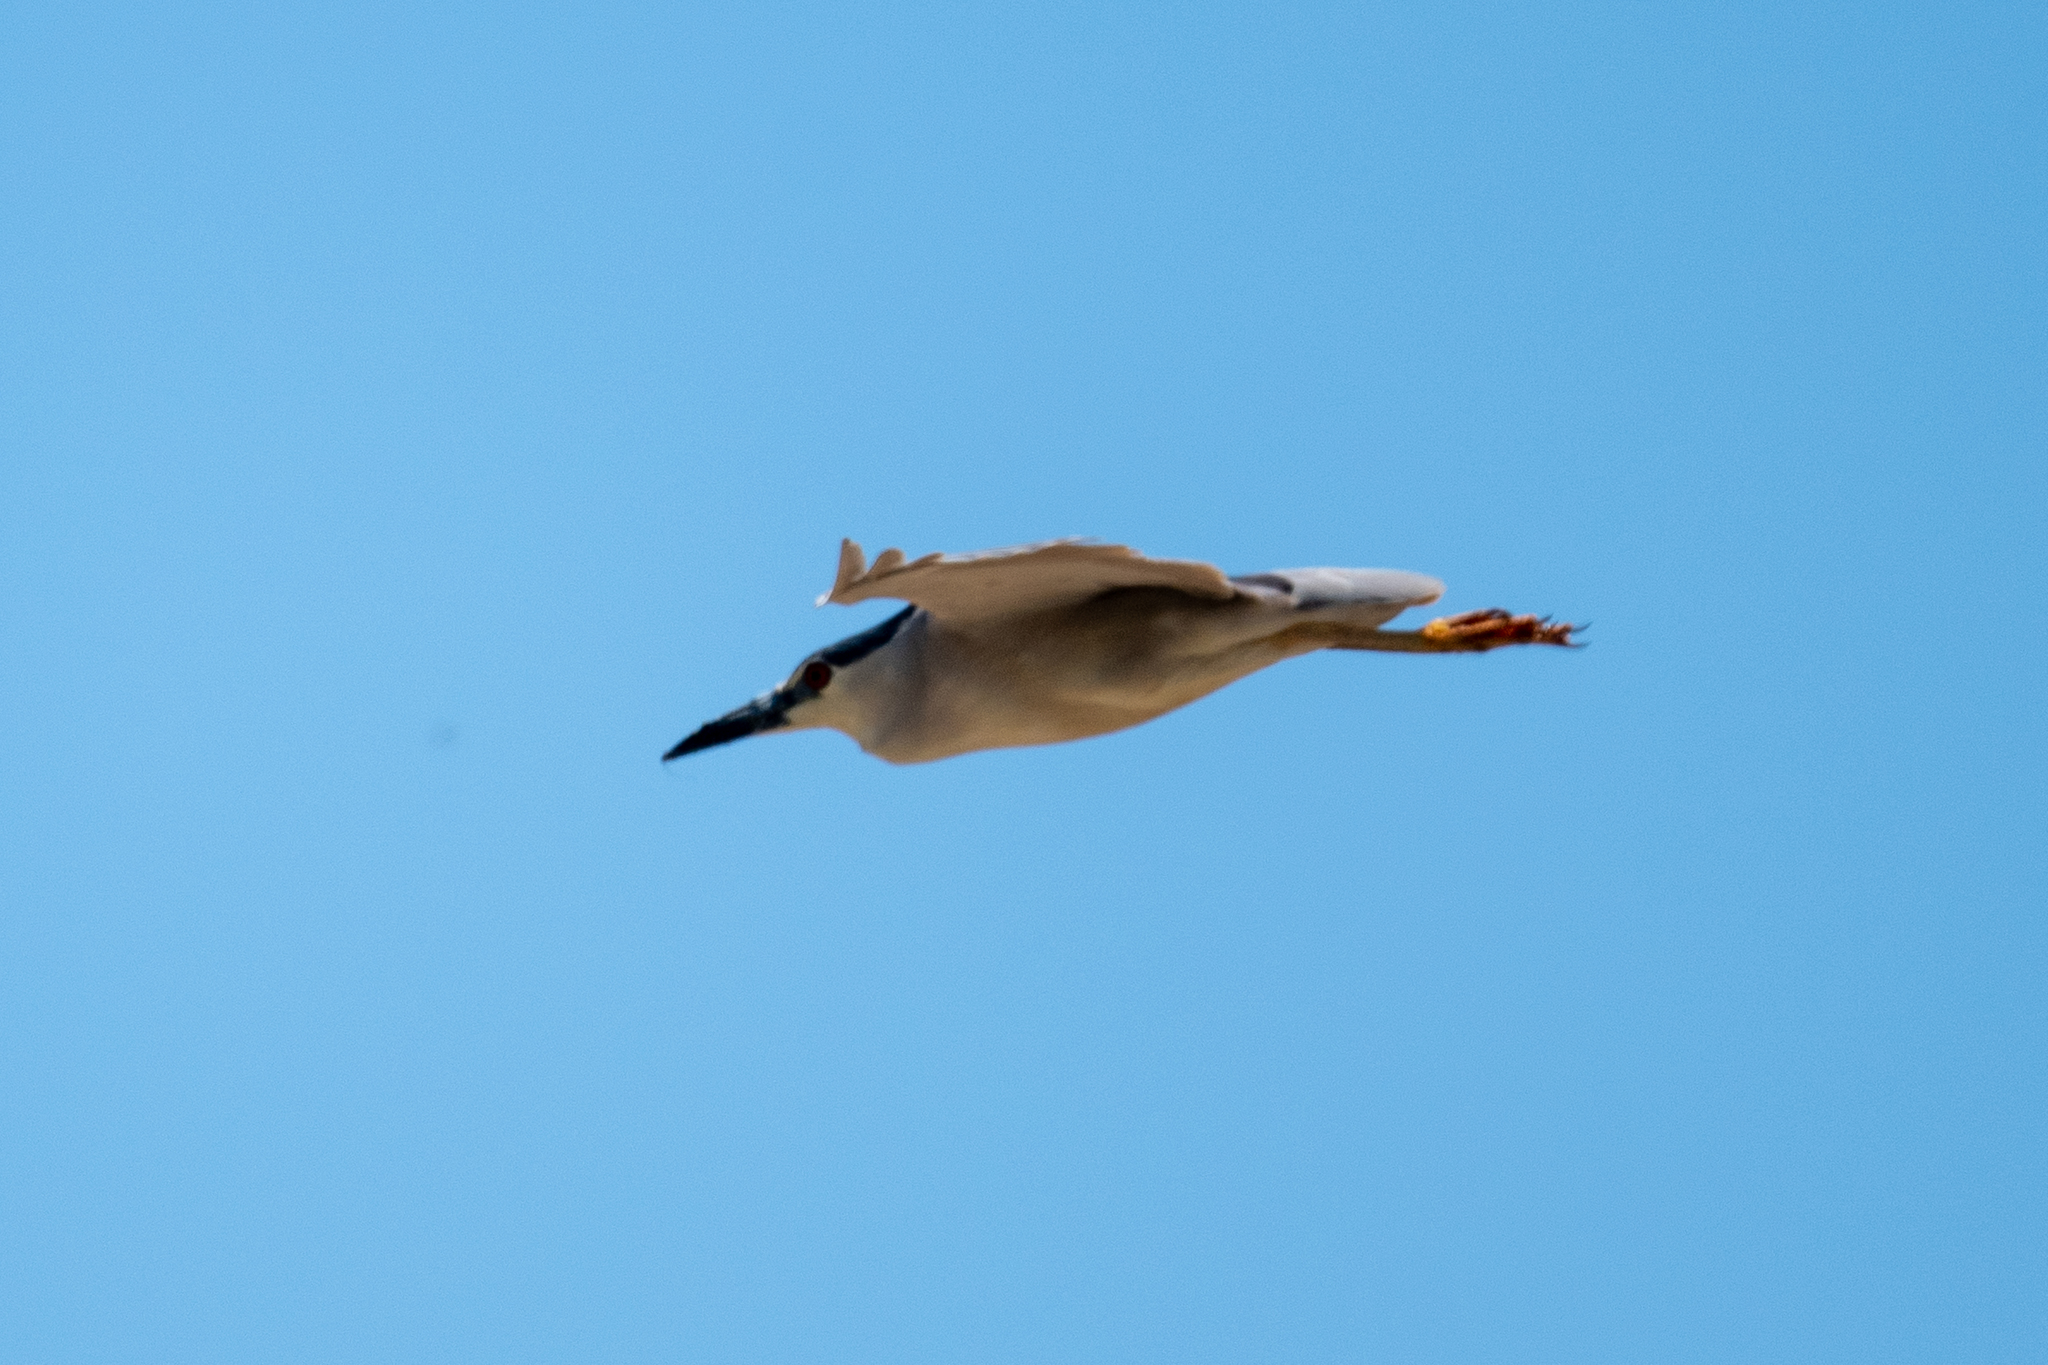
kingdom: Animalia
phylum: Chordata
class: Aves
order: Pelecaniformes
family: Ardeidae
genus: Nycticorax
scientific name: Nycticorax nycticorax
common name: Black-crowned night heron
